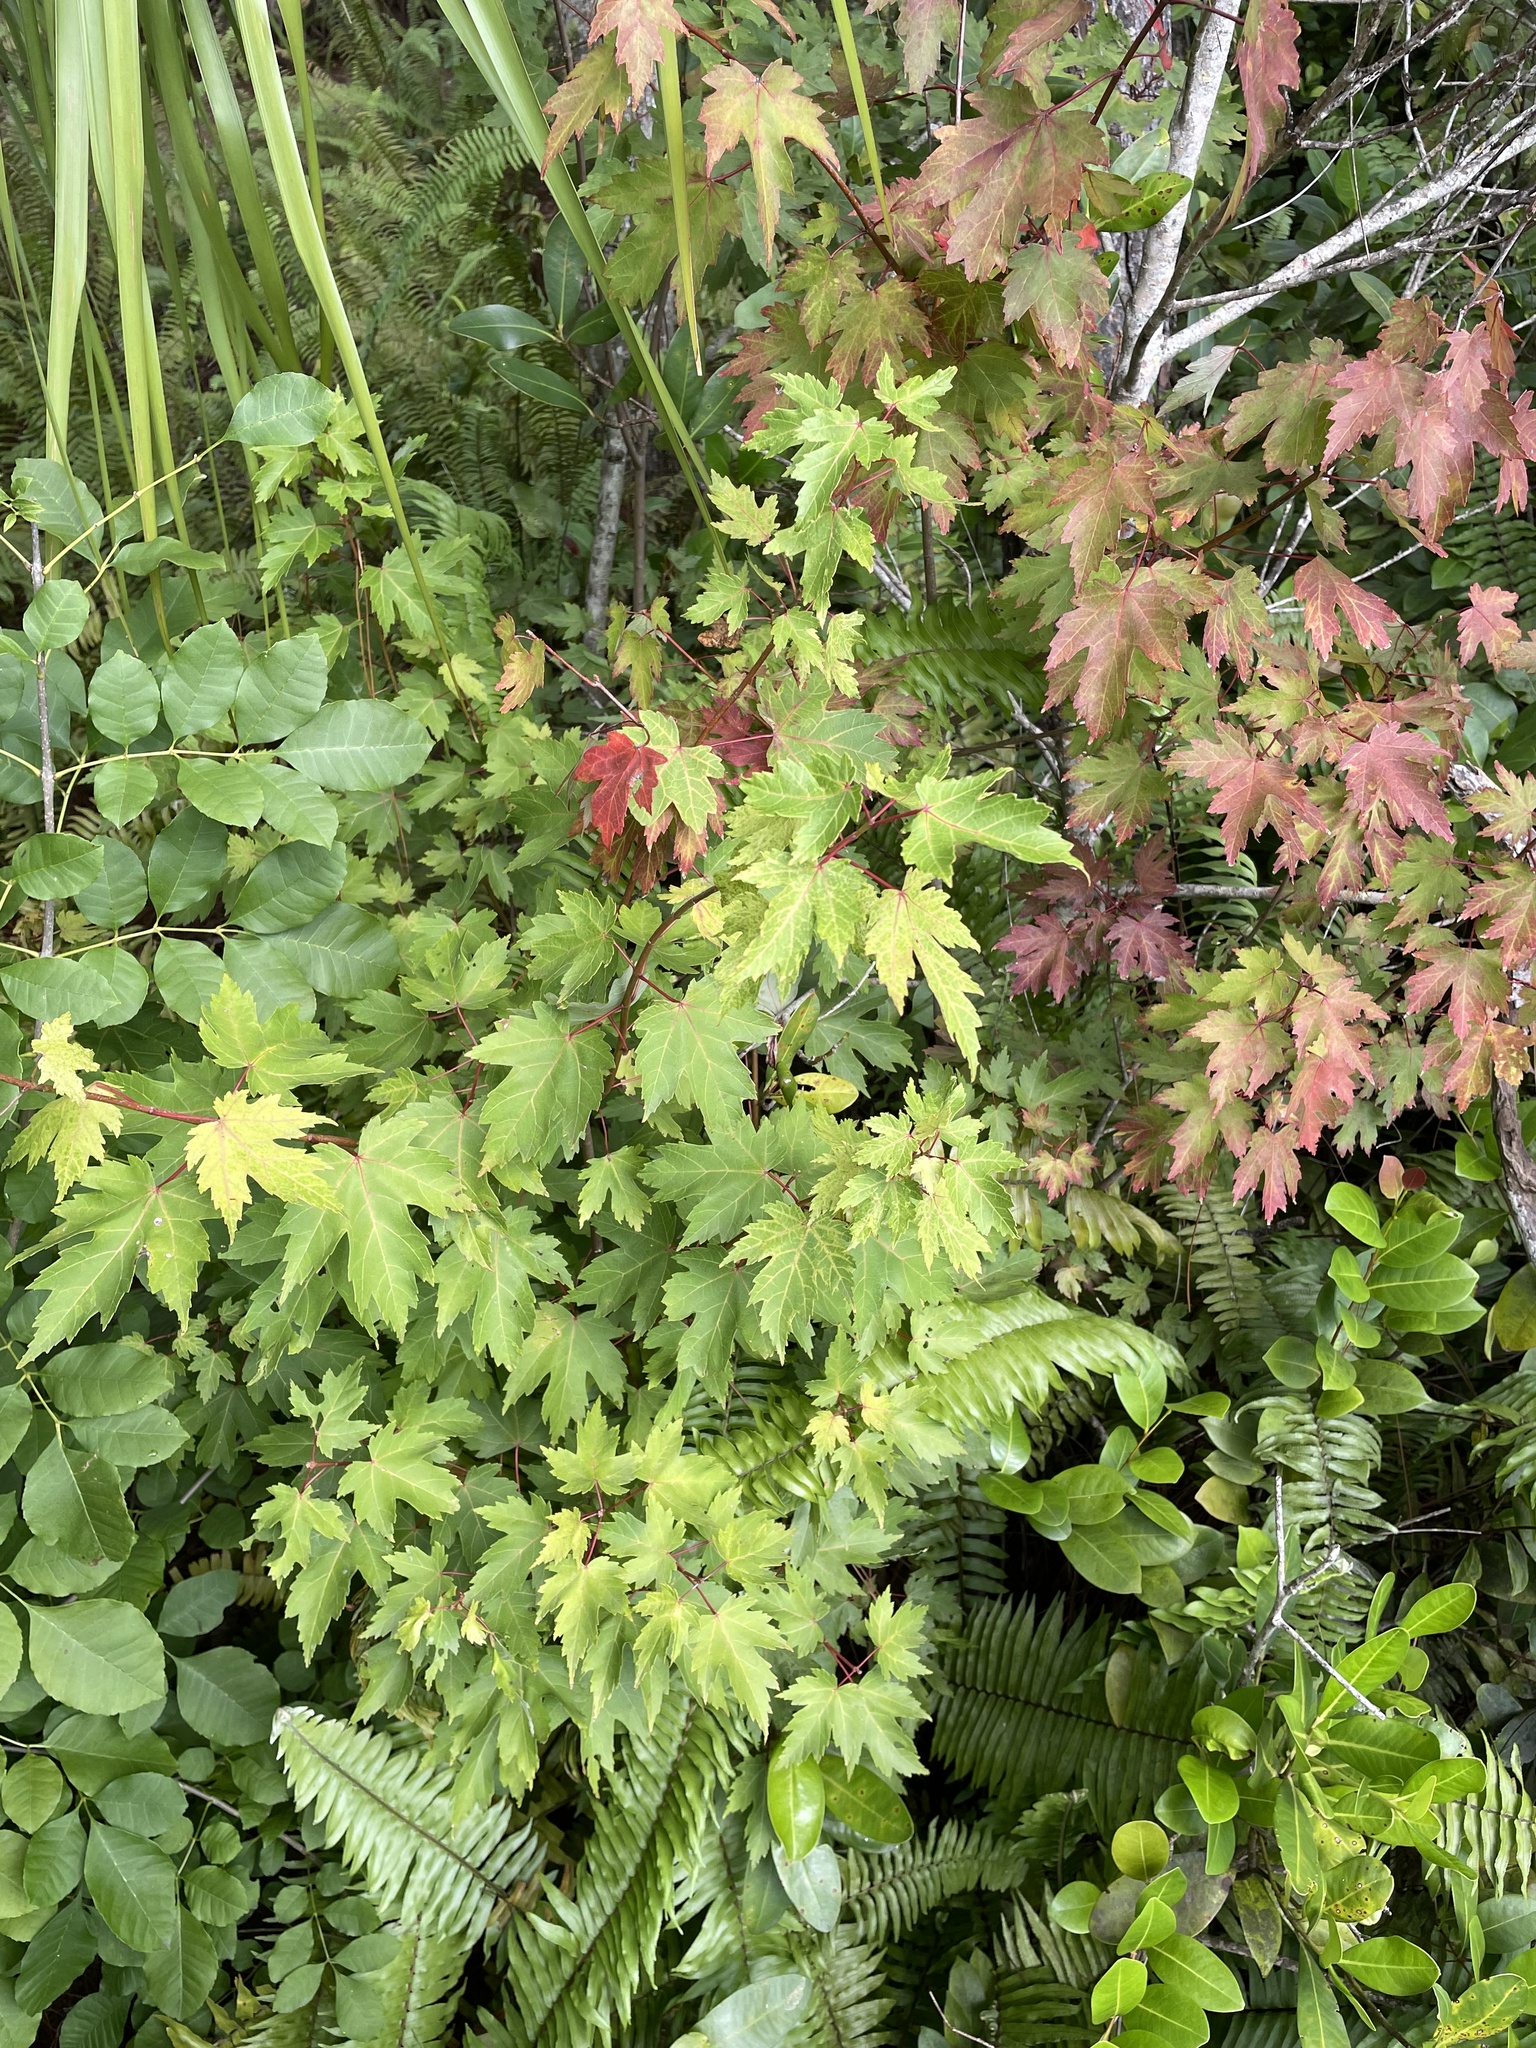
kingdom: Plantae
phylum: Tracheophyta
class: Magnoliopsida
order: Sapindales
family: Sapindaceae
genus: Acer
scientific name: Acer rubrum
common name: Red maple
